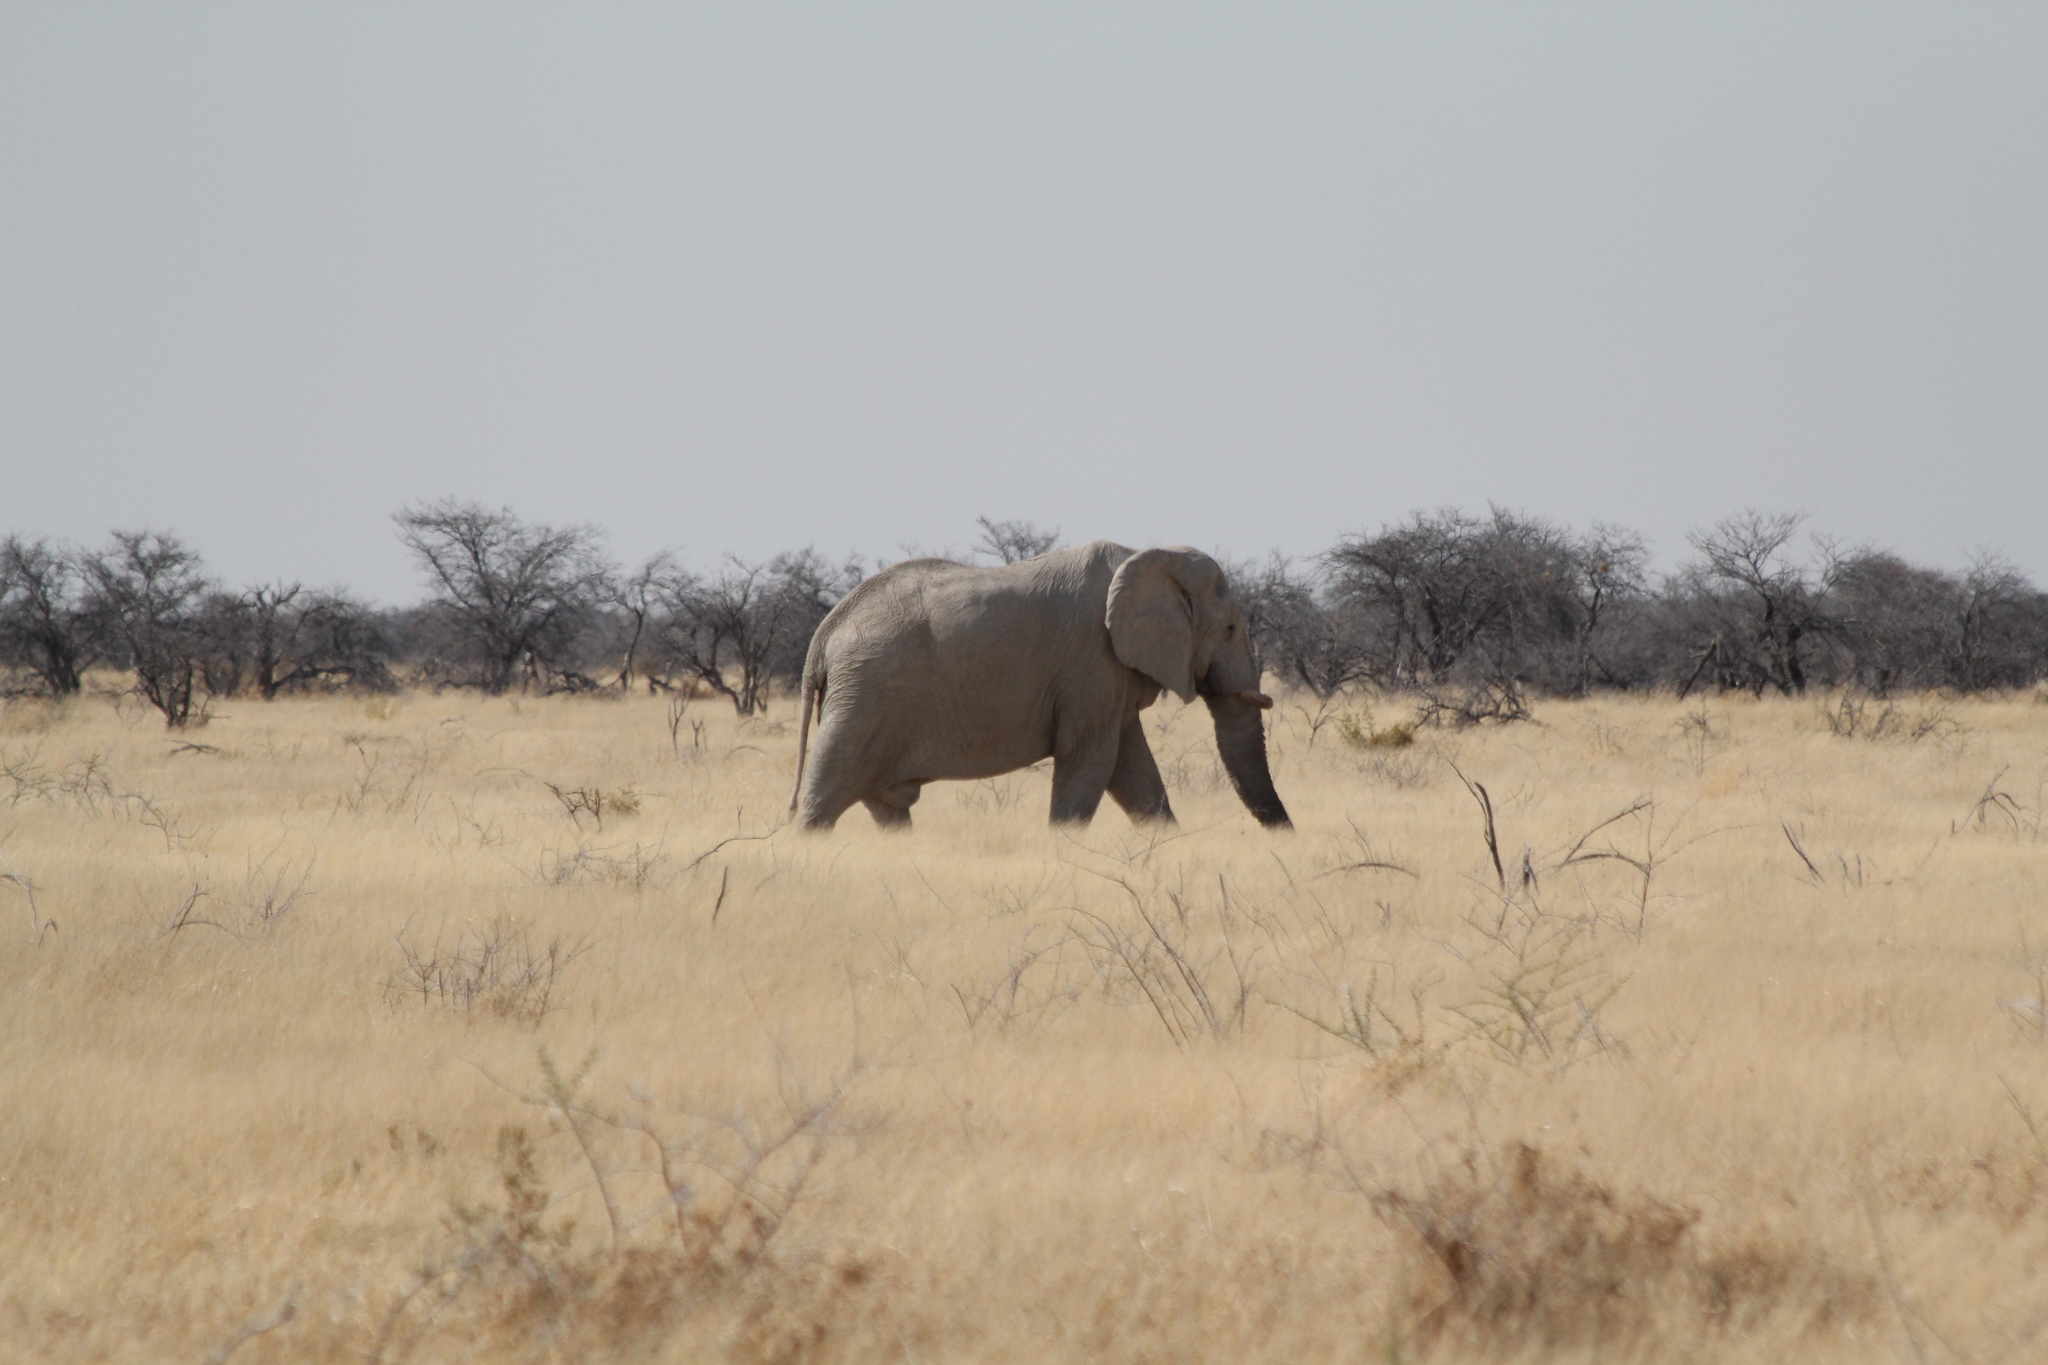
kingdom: Animalia
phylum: Chordata
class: Mammalia
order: Proboscidea
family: Elephantidae
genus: Loxodonta
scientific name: Loxodonta africana
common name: African elephant
